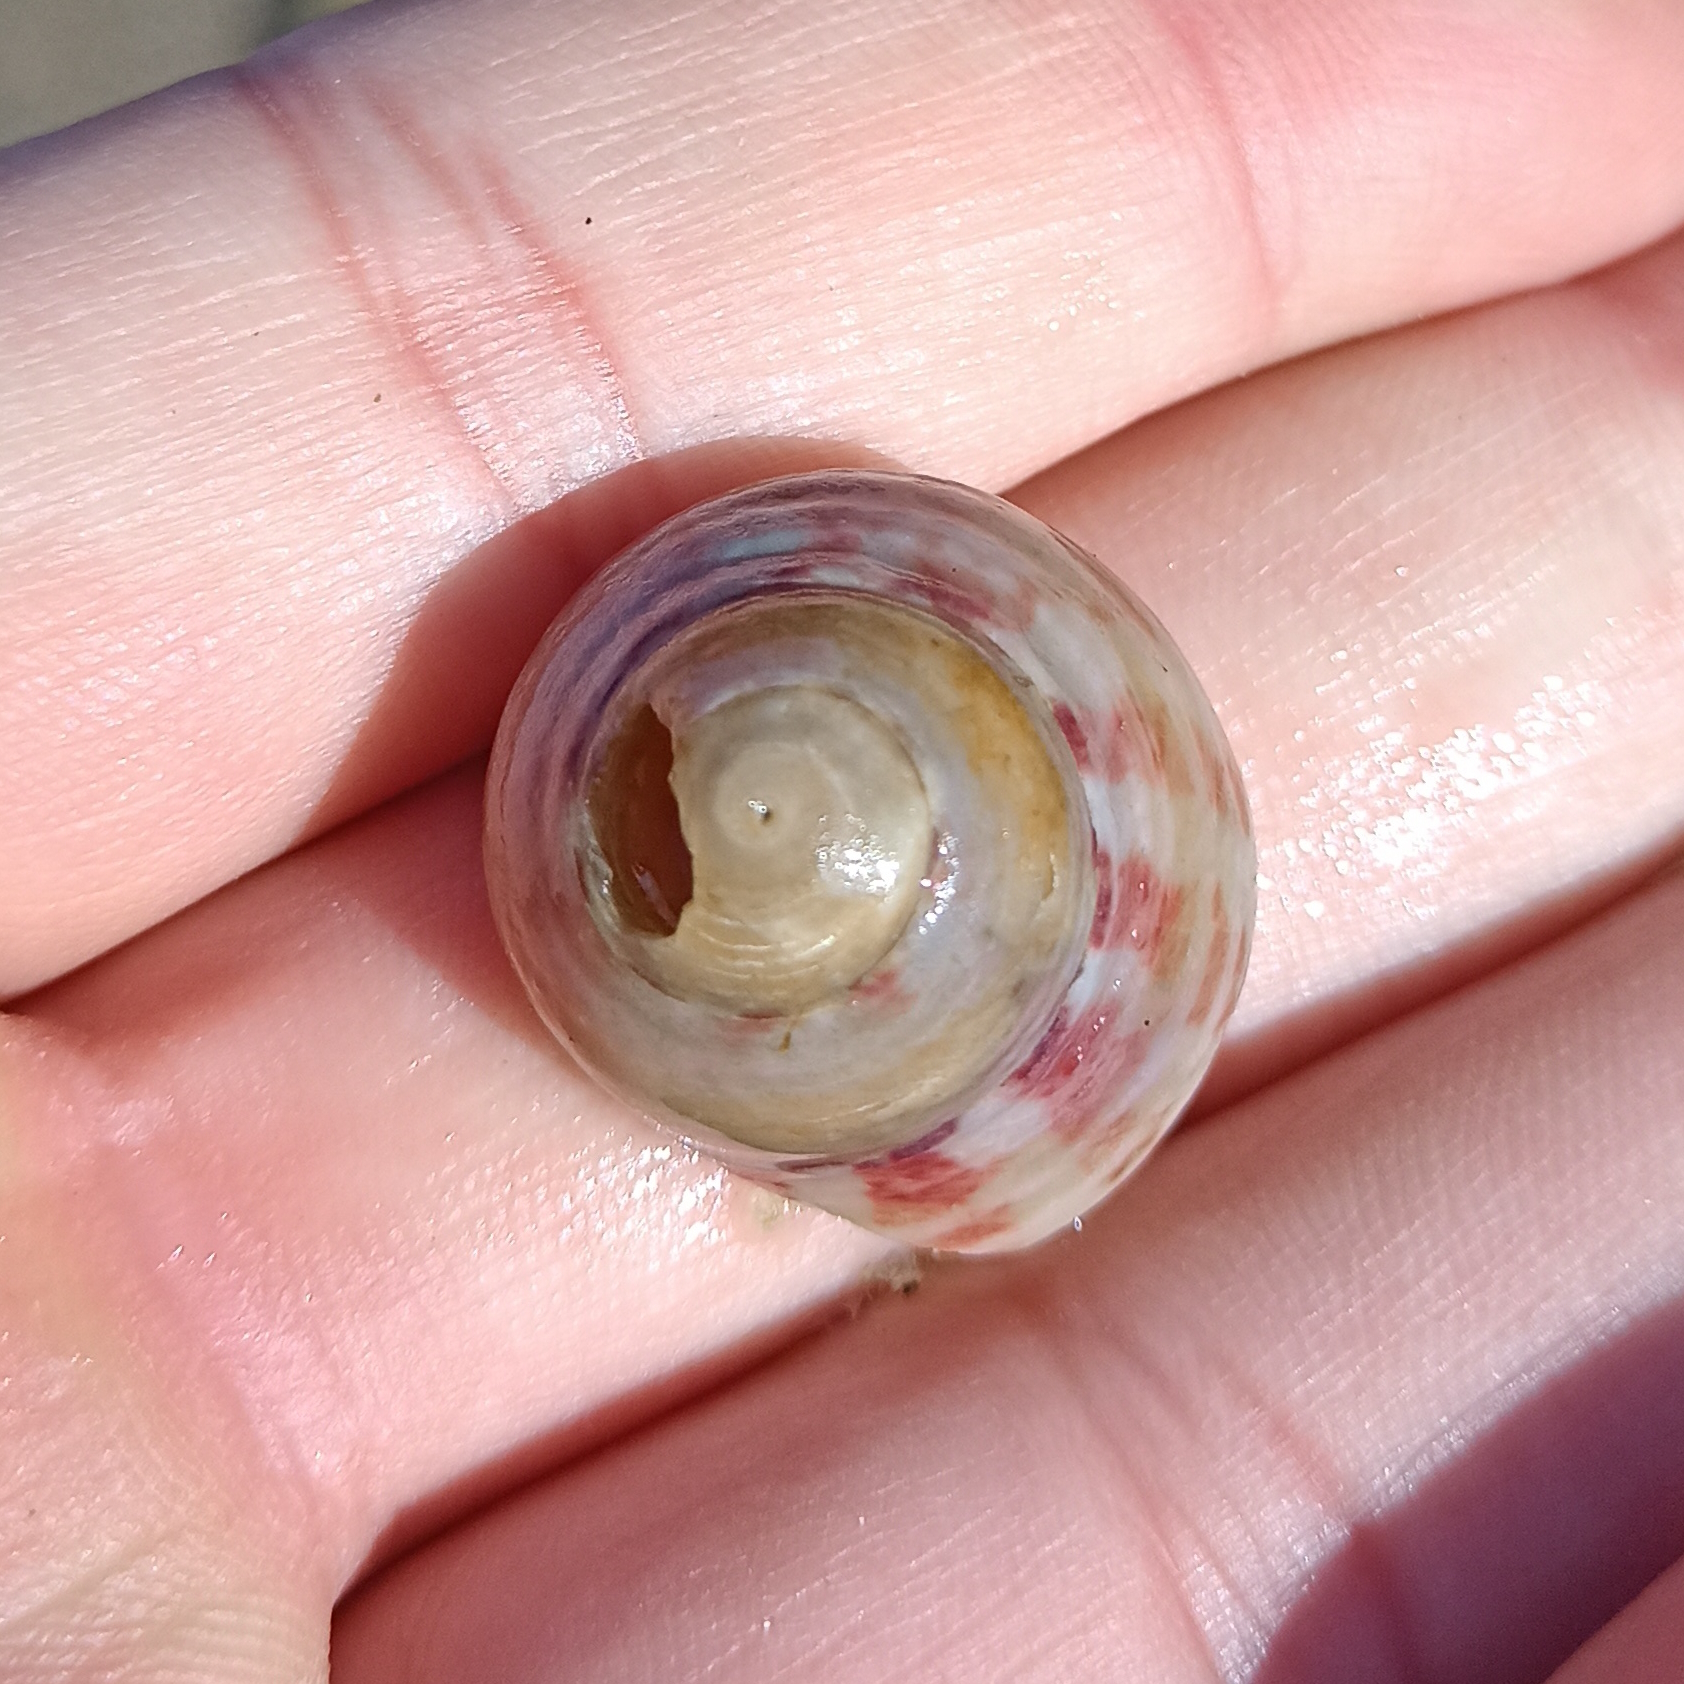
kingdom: Animalia
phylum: Mollusca
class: Gastropoda
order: Trochida
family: Tegulidae
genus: Agathistoma
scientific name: Agathistoma viridulum
